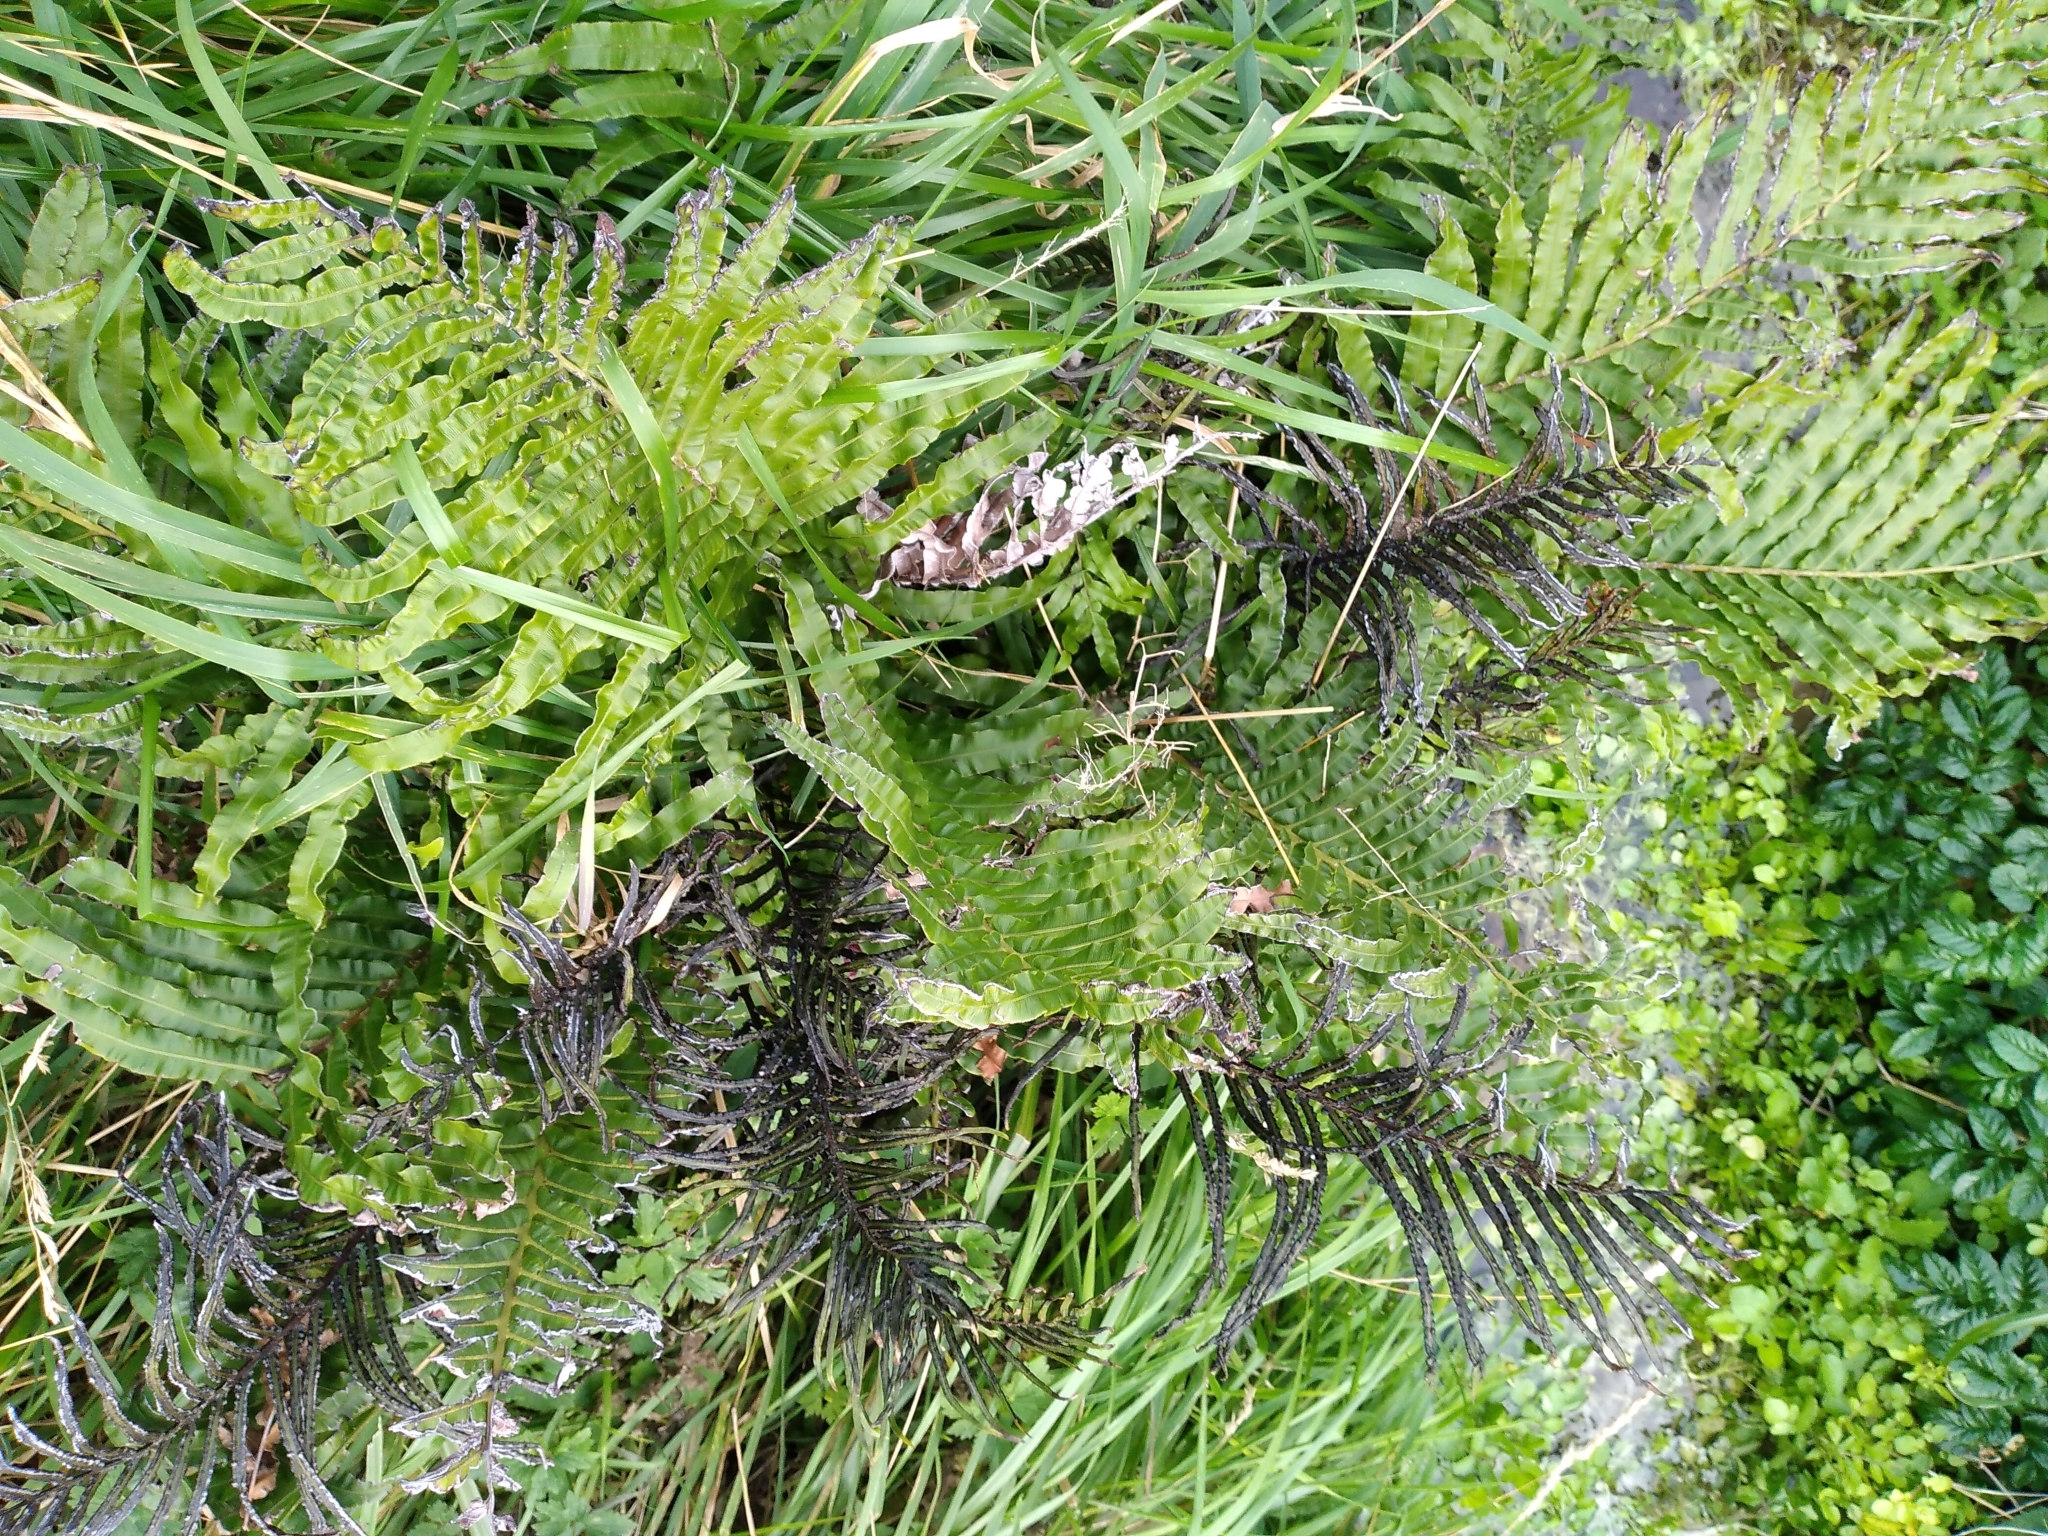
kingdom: Plantae
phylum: Tracheophyta
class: Polypodiopsida
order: Polypodiales
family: Blechnaceae
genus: Parablechnum
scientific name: Parablechnum minus
